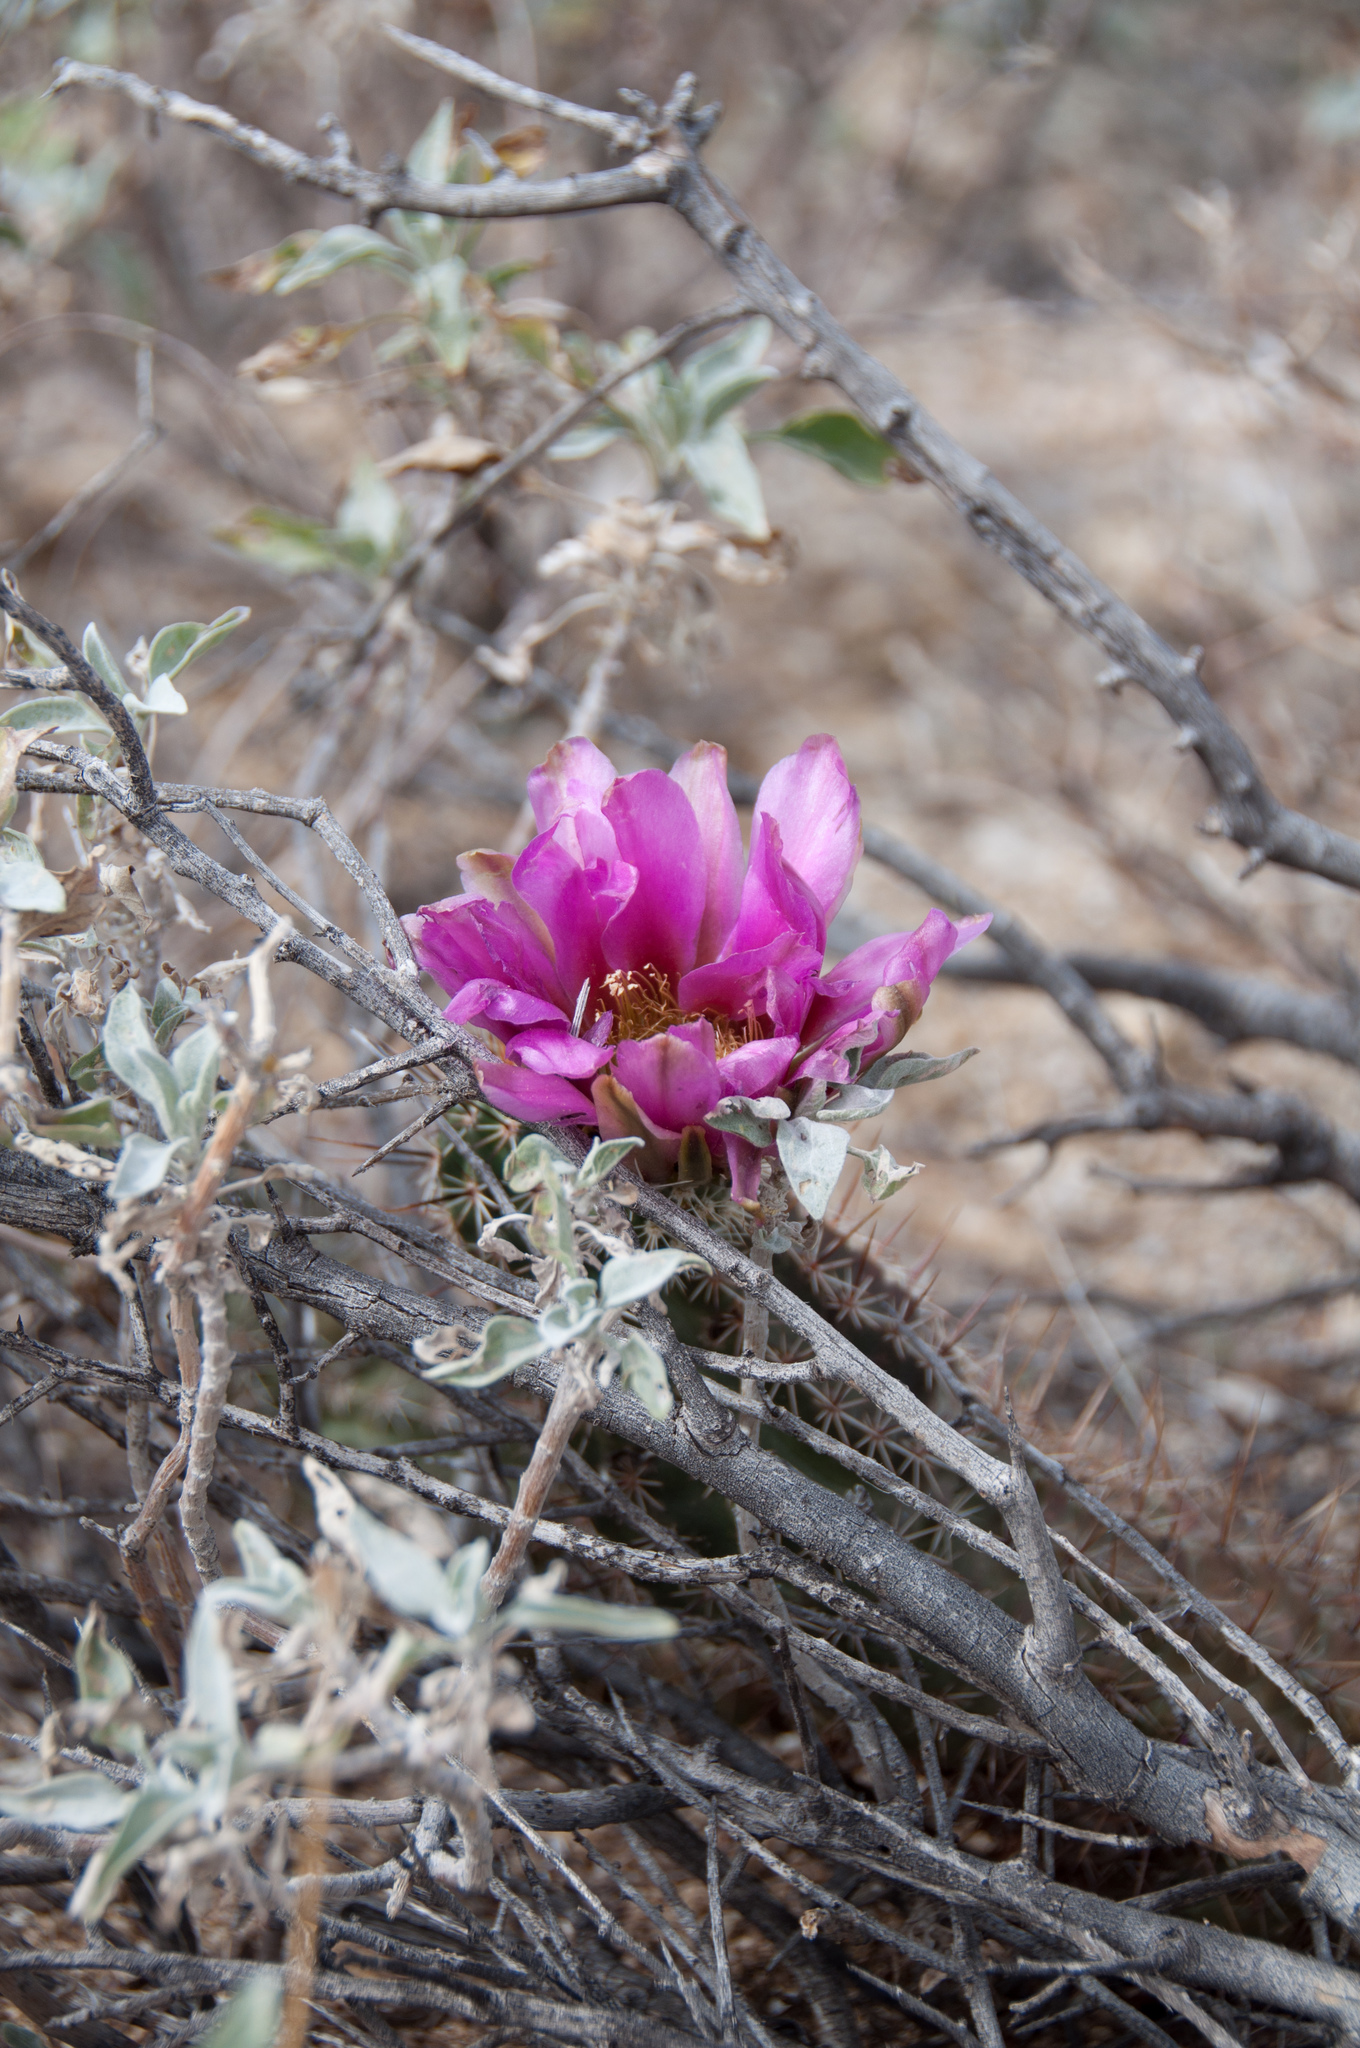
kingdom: Plantae
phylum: Tracheophyta
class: Magnoliopsida
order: Caryophyllales
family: Cactaceae
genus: Echinocereus
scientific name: Echinocereus fasciculatus
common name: Bundle hedgehog
